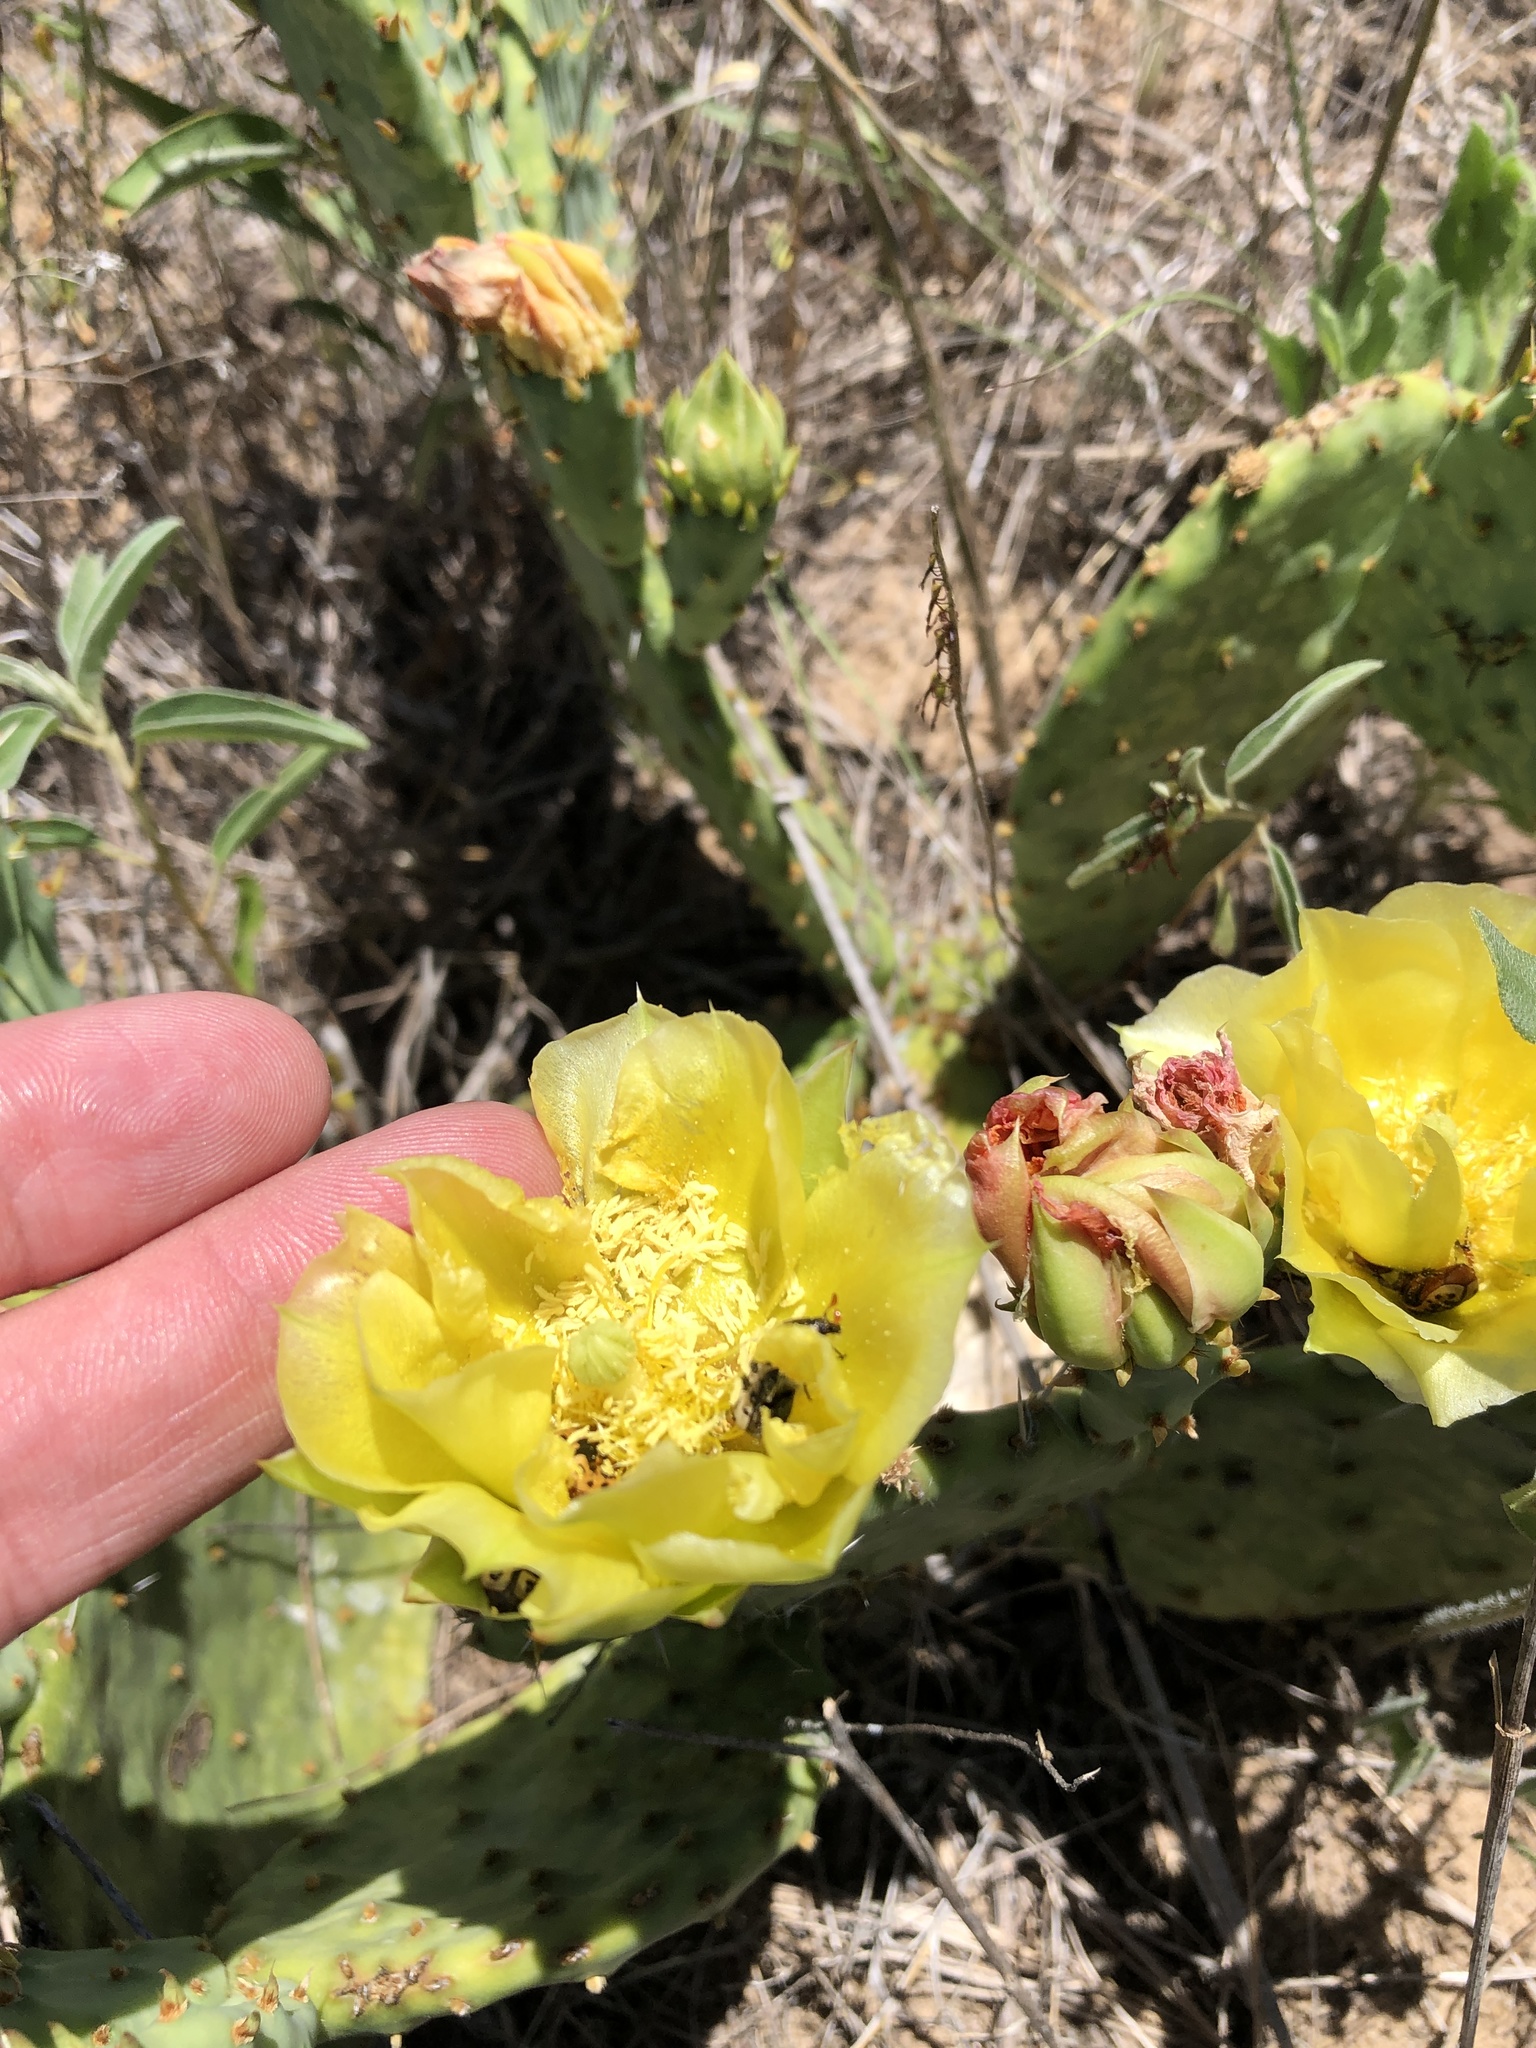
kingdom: Plantae
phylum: Tracheophyta
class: Magnoliopsida
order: Caryophyllales
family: Cactaceae
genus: Opuntia
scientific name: Opuntia macrorhiza
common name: Grassland pricklypear
